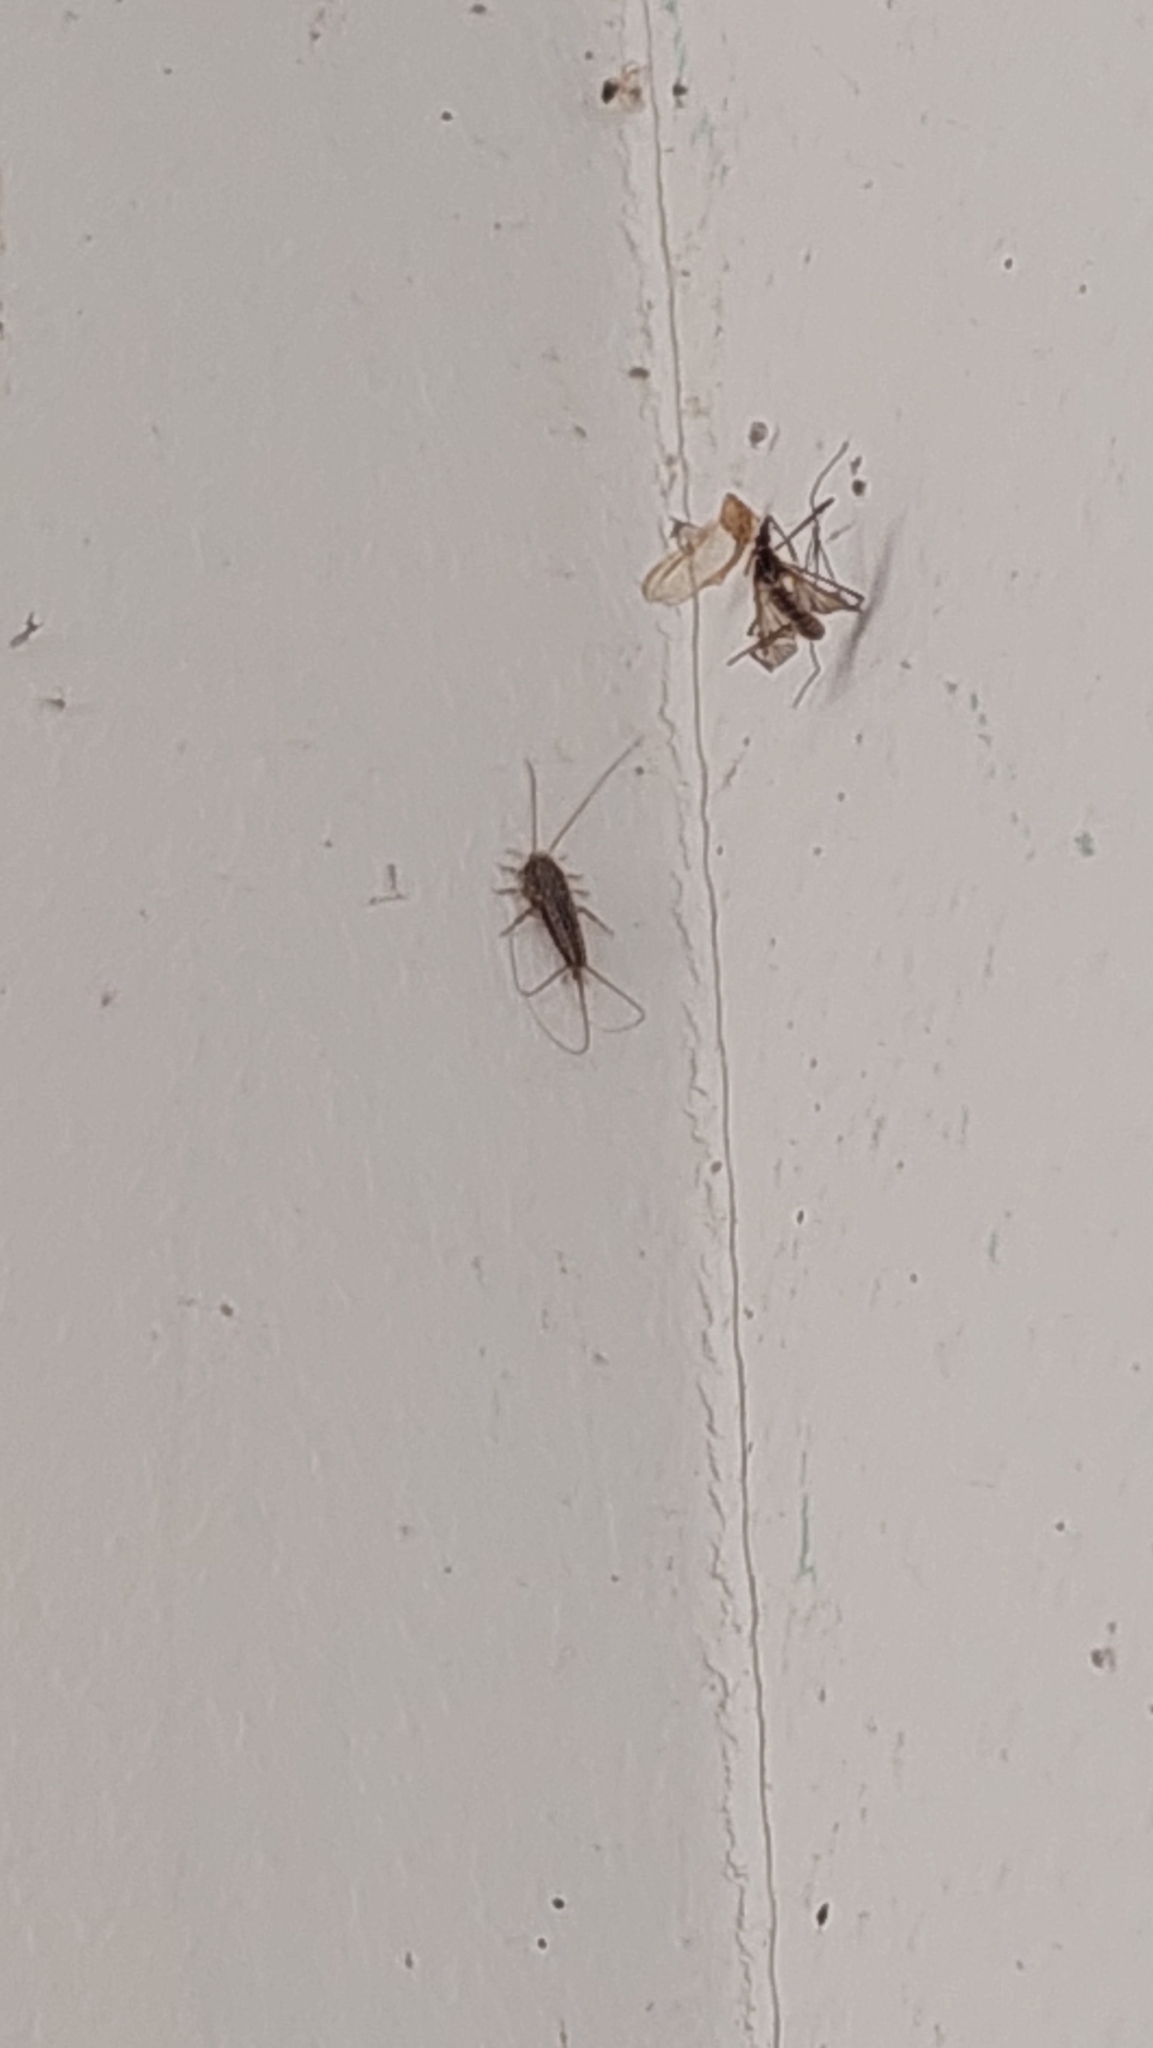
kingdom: Animalia
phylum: Arthropoda
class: Insecta
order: Zygentoma
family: Lepismatidae
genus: Ctenolepisma
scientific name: Ctenolepisma lineata
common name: Four-lined silverfish
